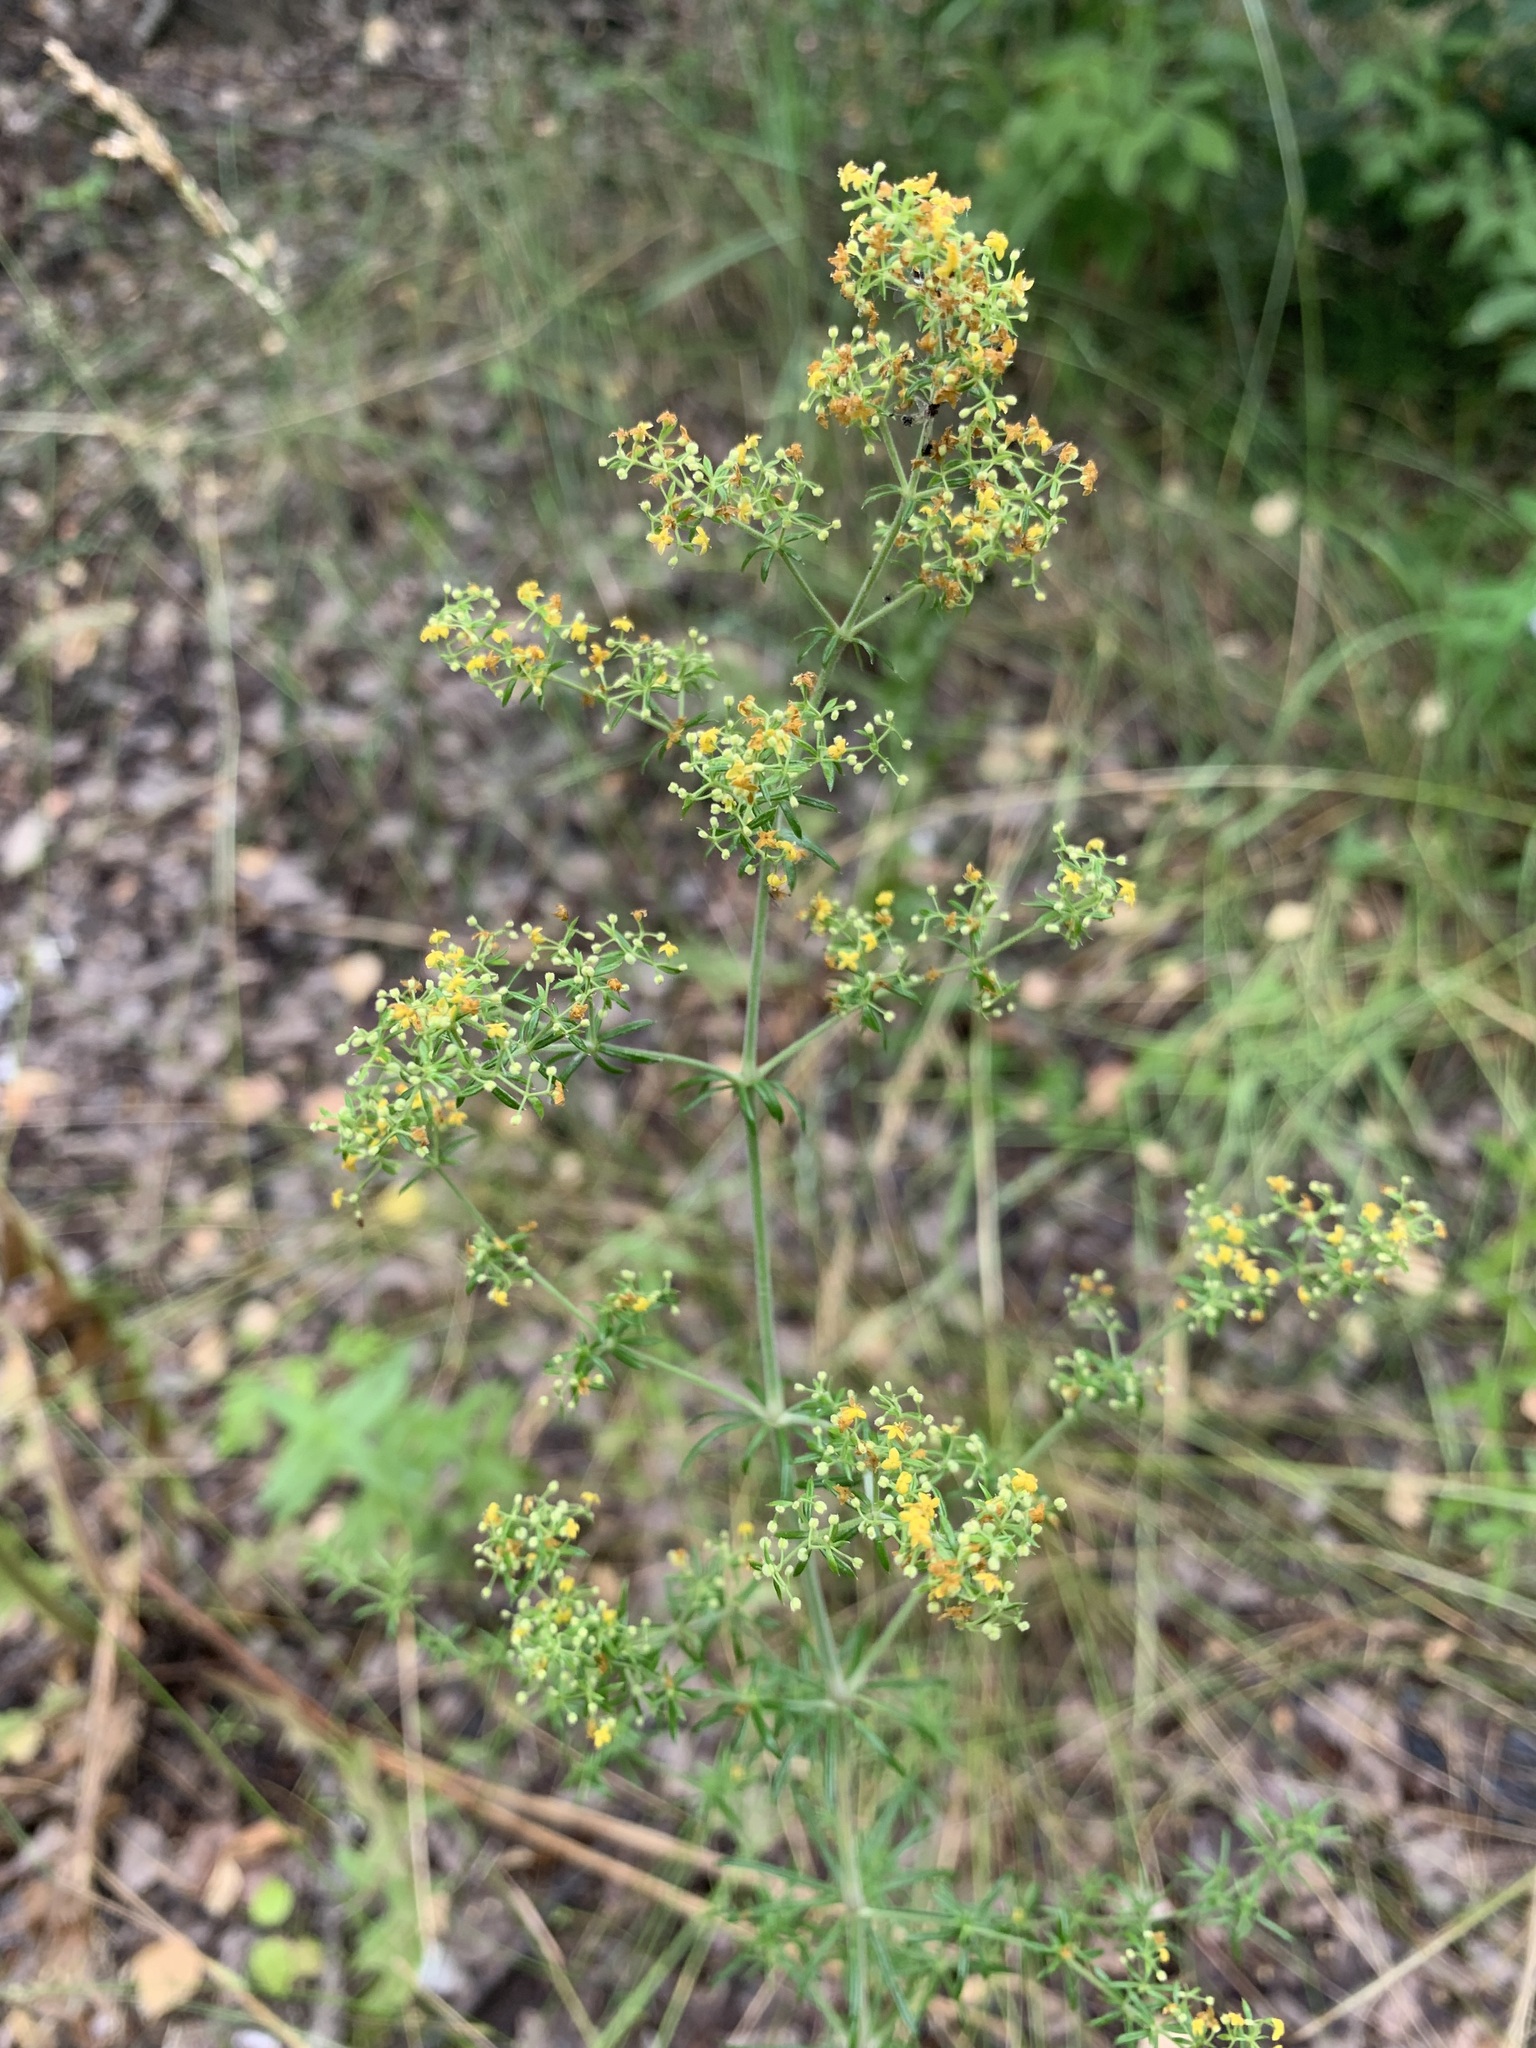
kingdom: Plantae
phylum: Tracheophyta
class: Magnoliopsida
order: Gentianales
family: Rubiaceae
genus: Galium
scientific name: Galium verum
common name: Lady's bedstraw
